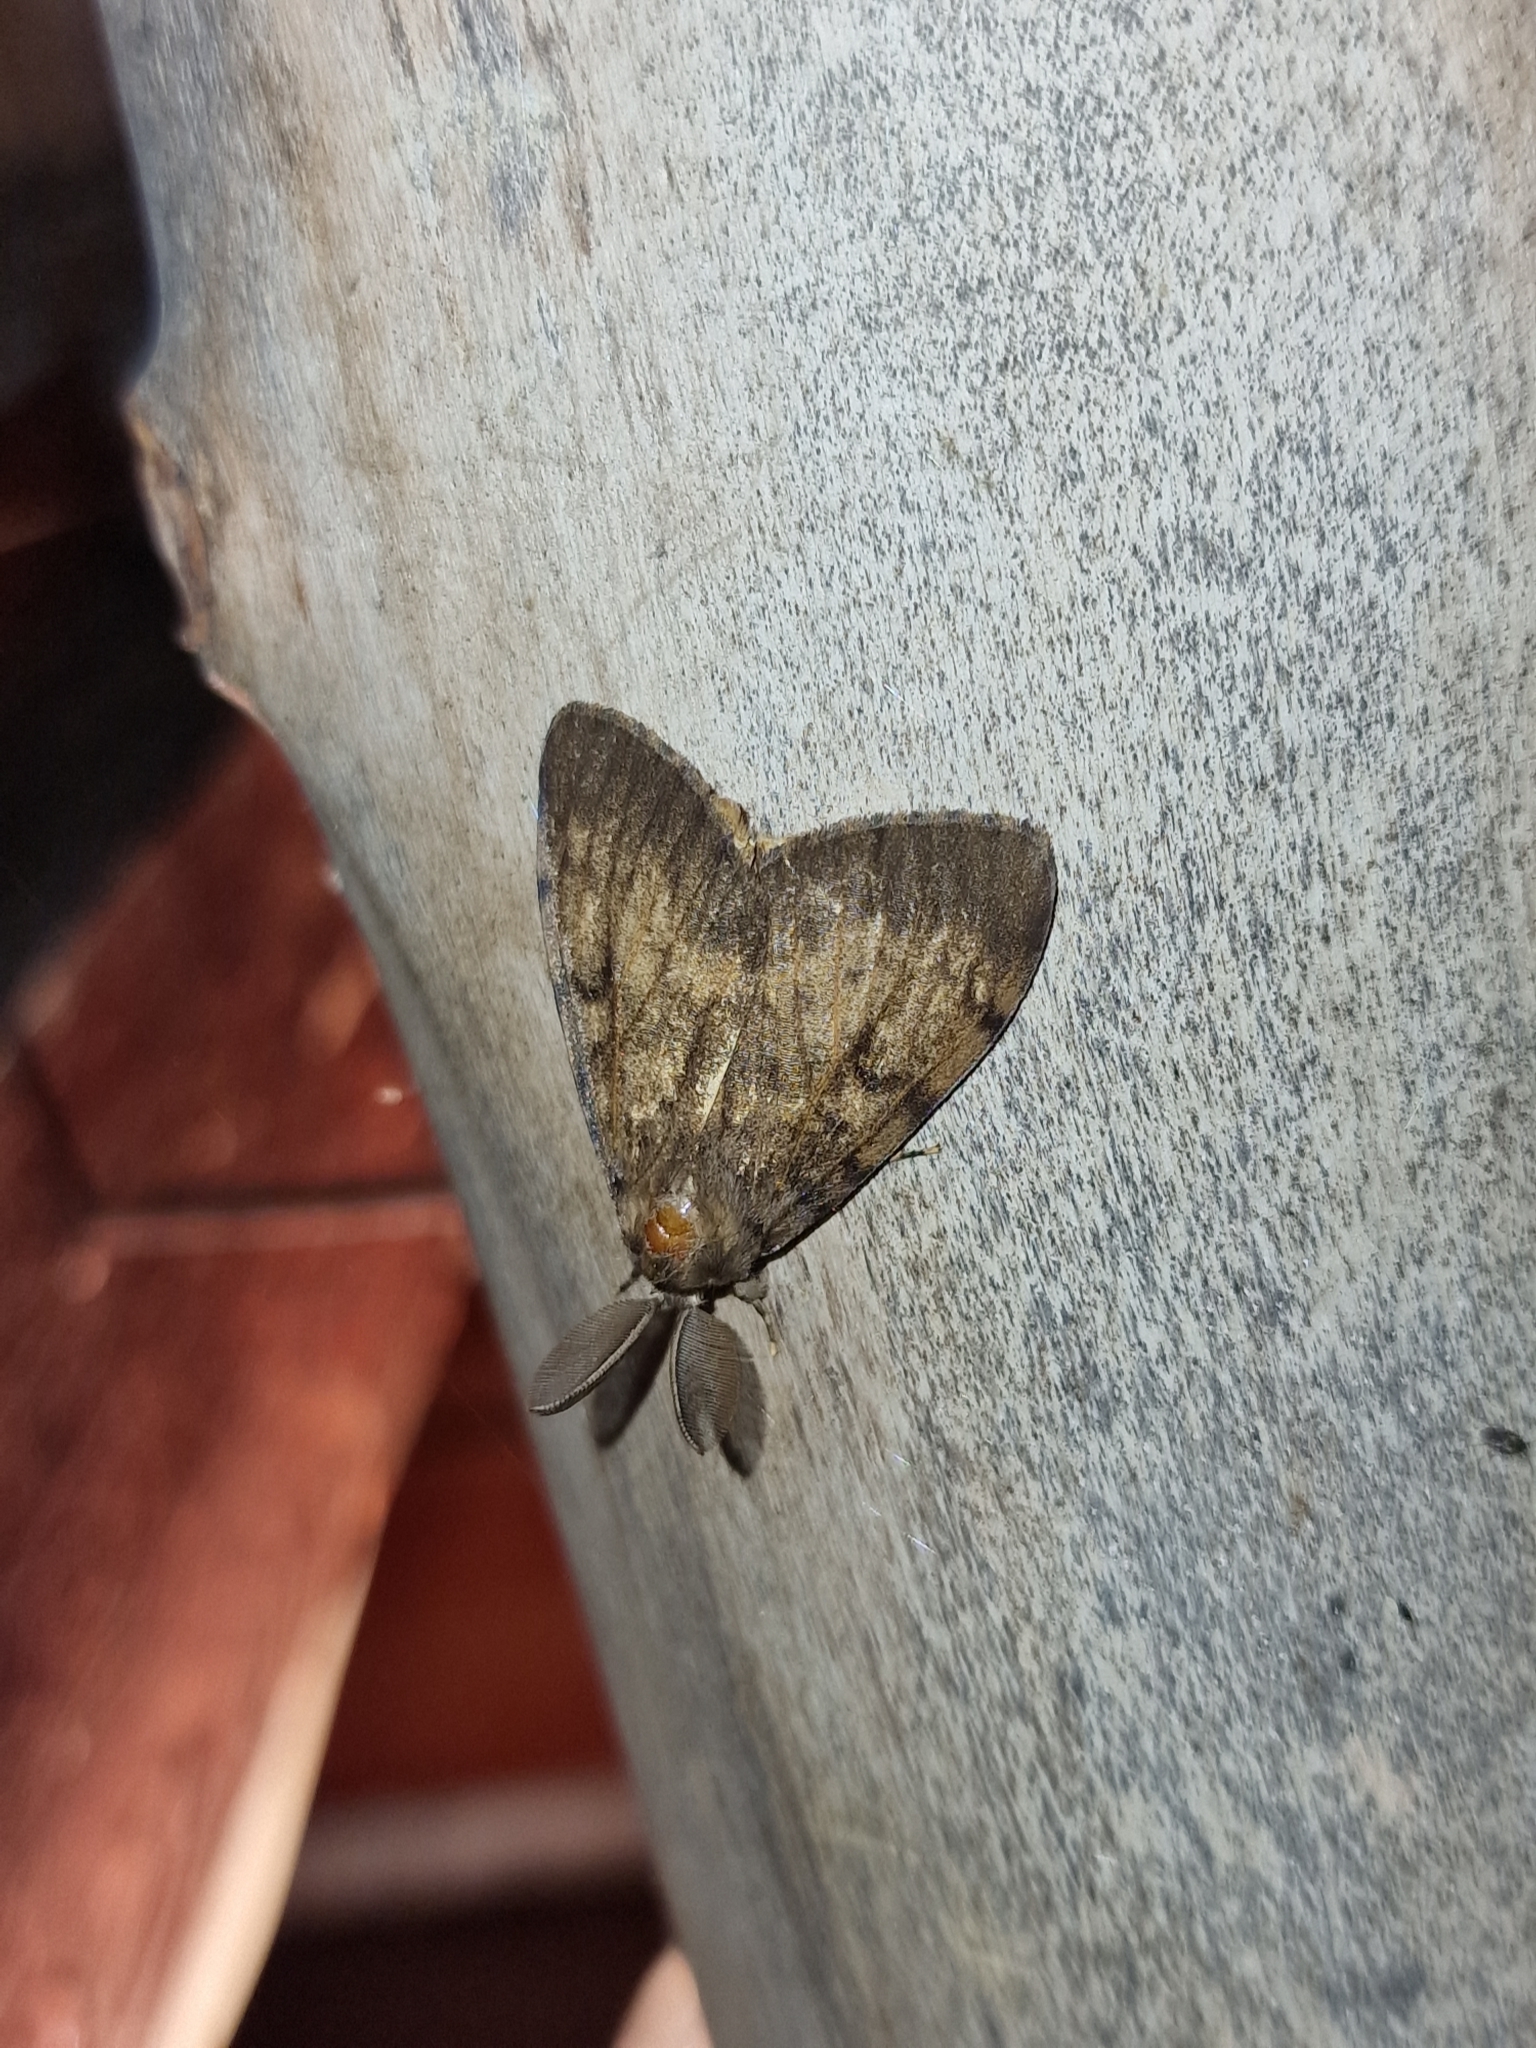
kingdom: Animalia
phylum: Arthropoda
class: Insecta
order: Lepidoptera
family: Erebidae
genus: Lymantria
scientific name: Lymantria dispar
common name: Gypsy moth
